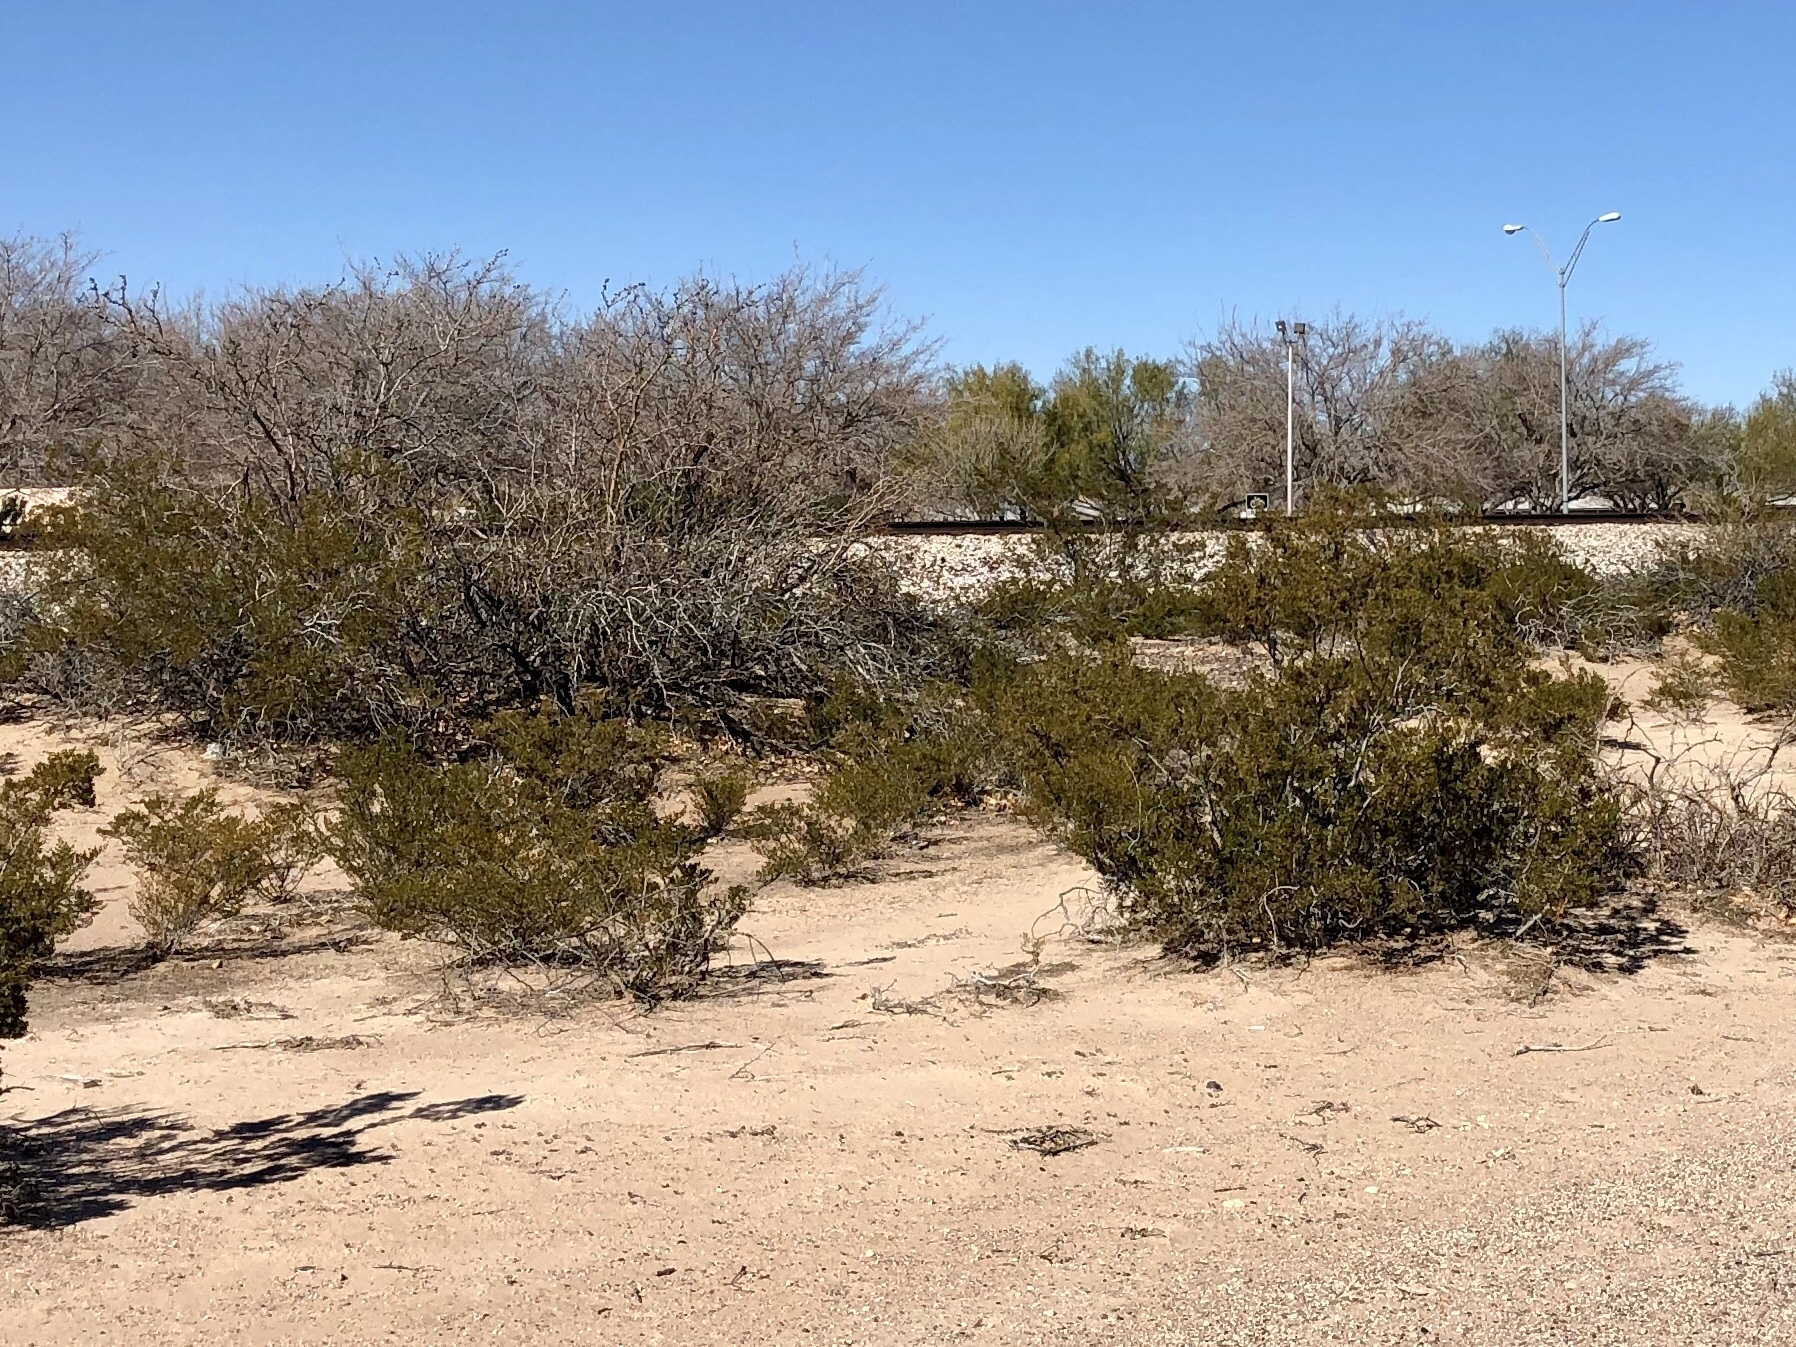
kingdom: Plantae
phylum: Tracheophyta
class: Magnoliopsida
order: Zygophyllales
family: Zygophyllaceae
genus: Larrea
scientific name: Larrea tridentata
